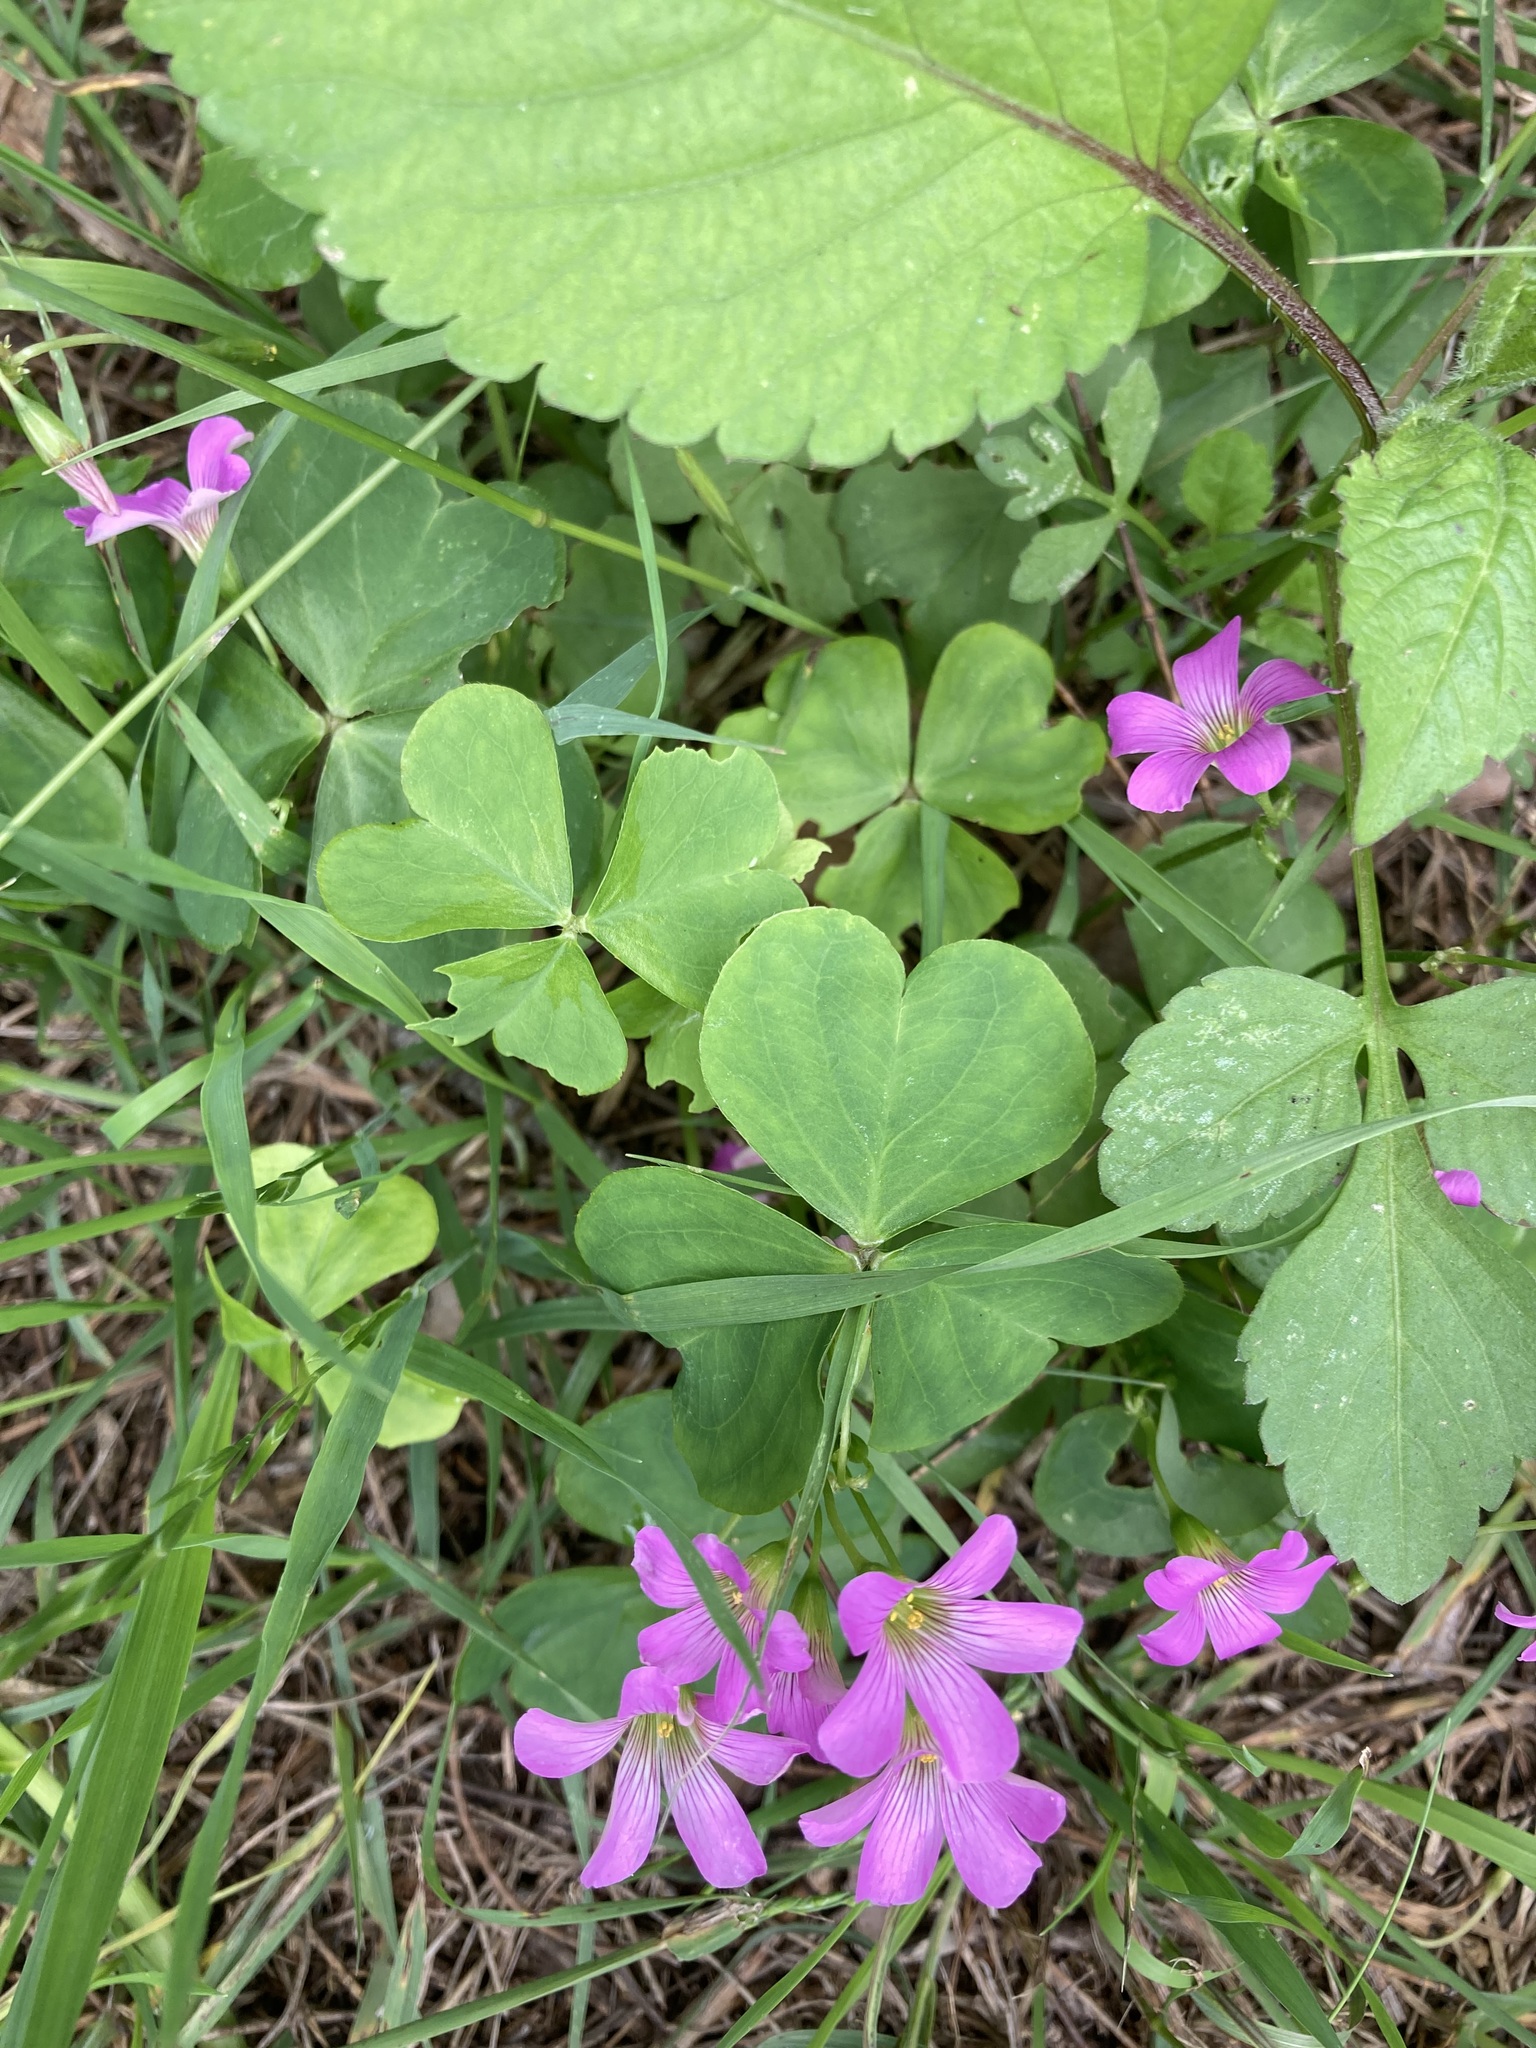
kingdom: Plantae
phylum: Tracheophyta
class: Magnoliopsida
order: Oxalidales
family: Oxalidaceae
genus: Oxalis
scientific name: Oxalis debilis
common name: Large-flowered pink-sorrel
